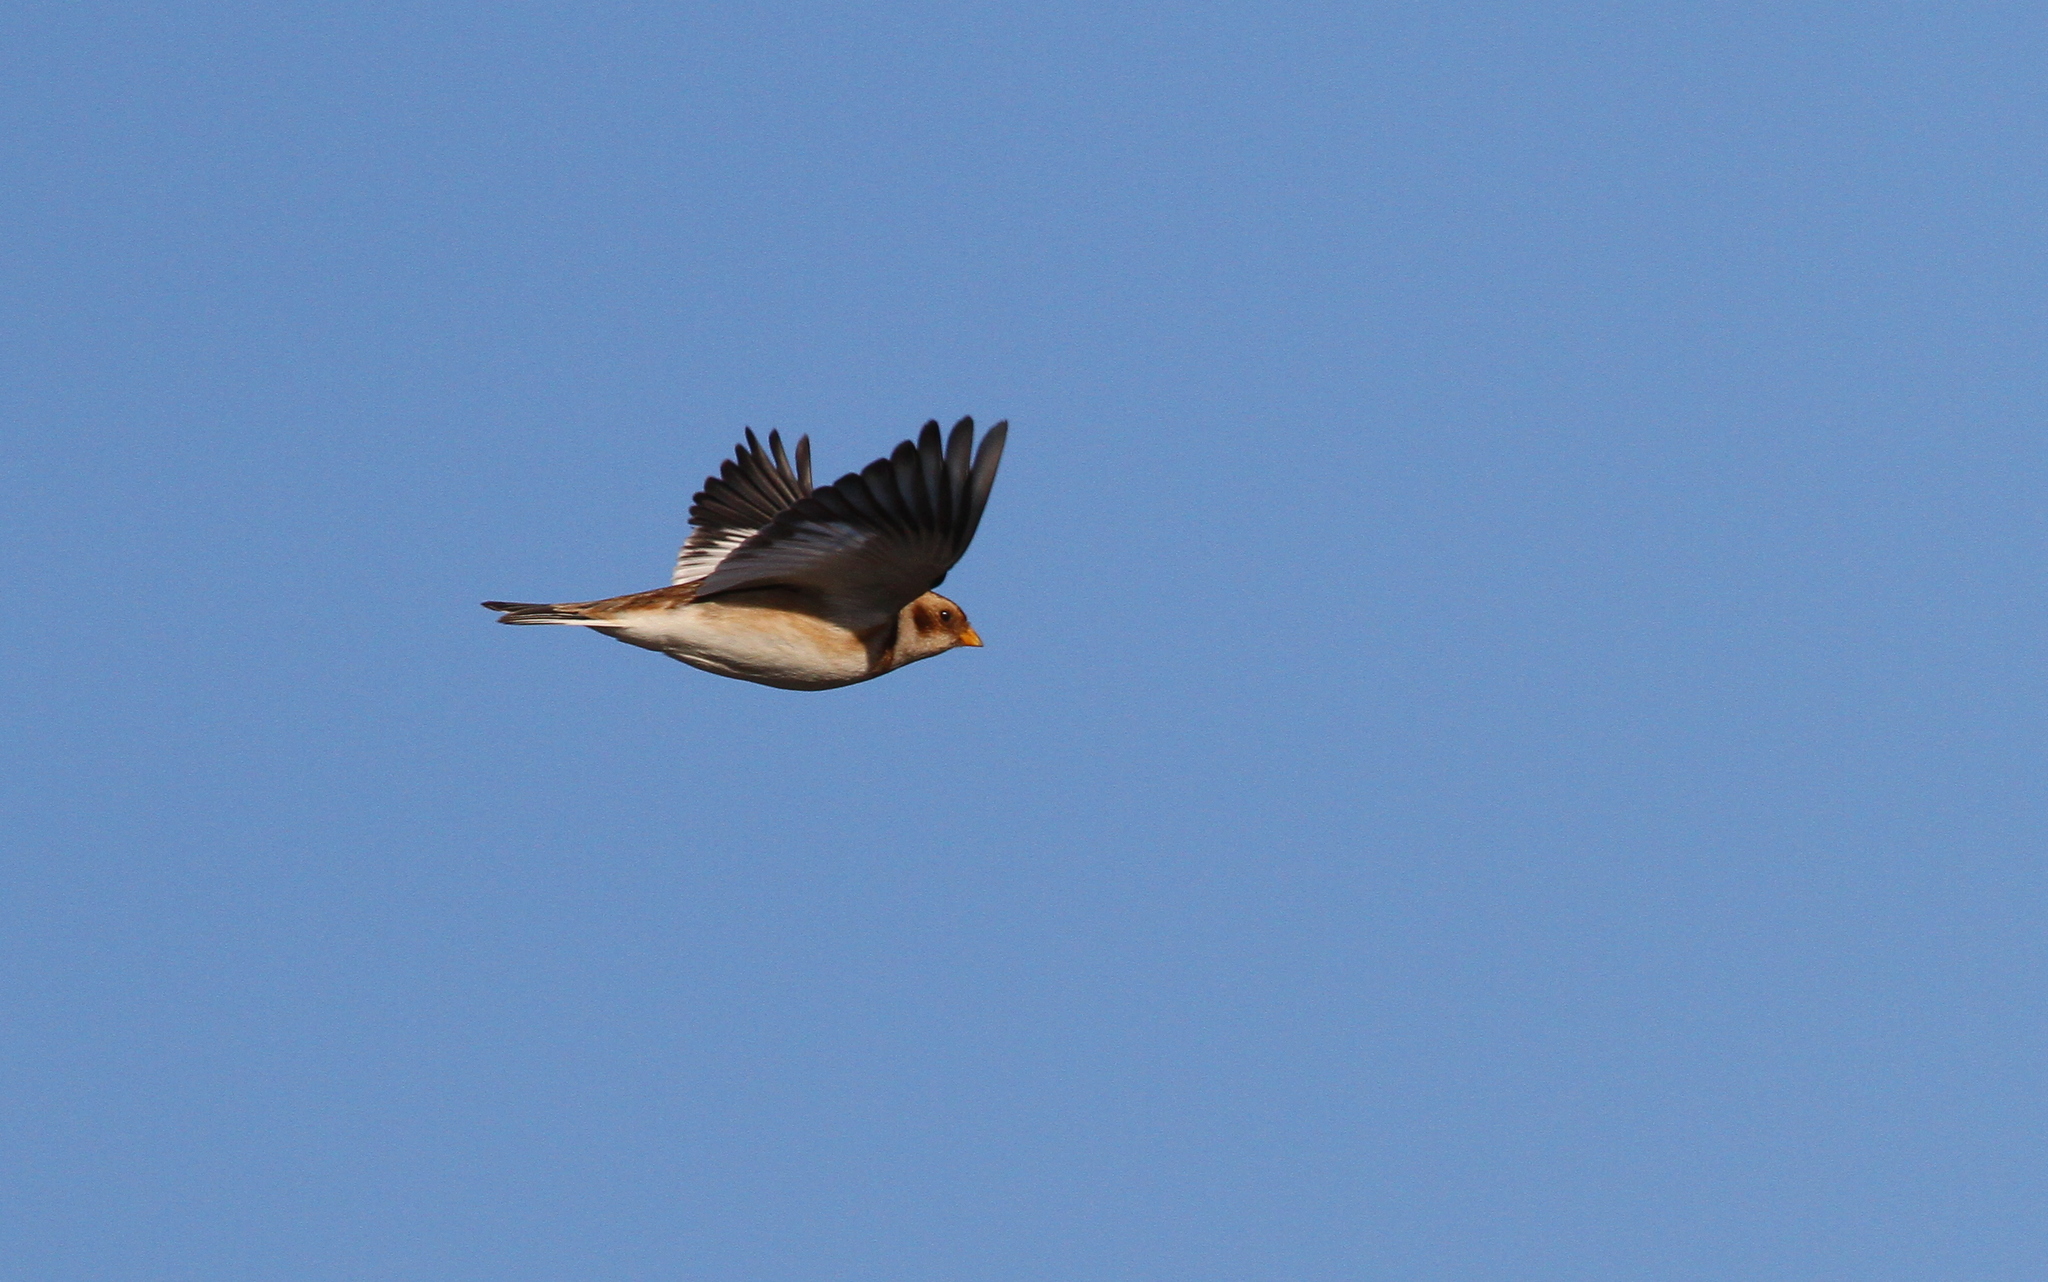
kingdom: Animalia
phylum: Chordata
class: Aves
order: Passeriformes
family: Calcariidae
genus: Plectrophenax
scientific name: Plectrophenax nivalis
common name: Snow bunting
